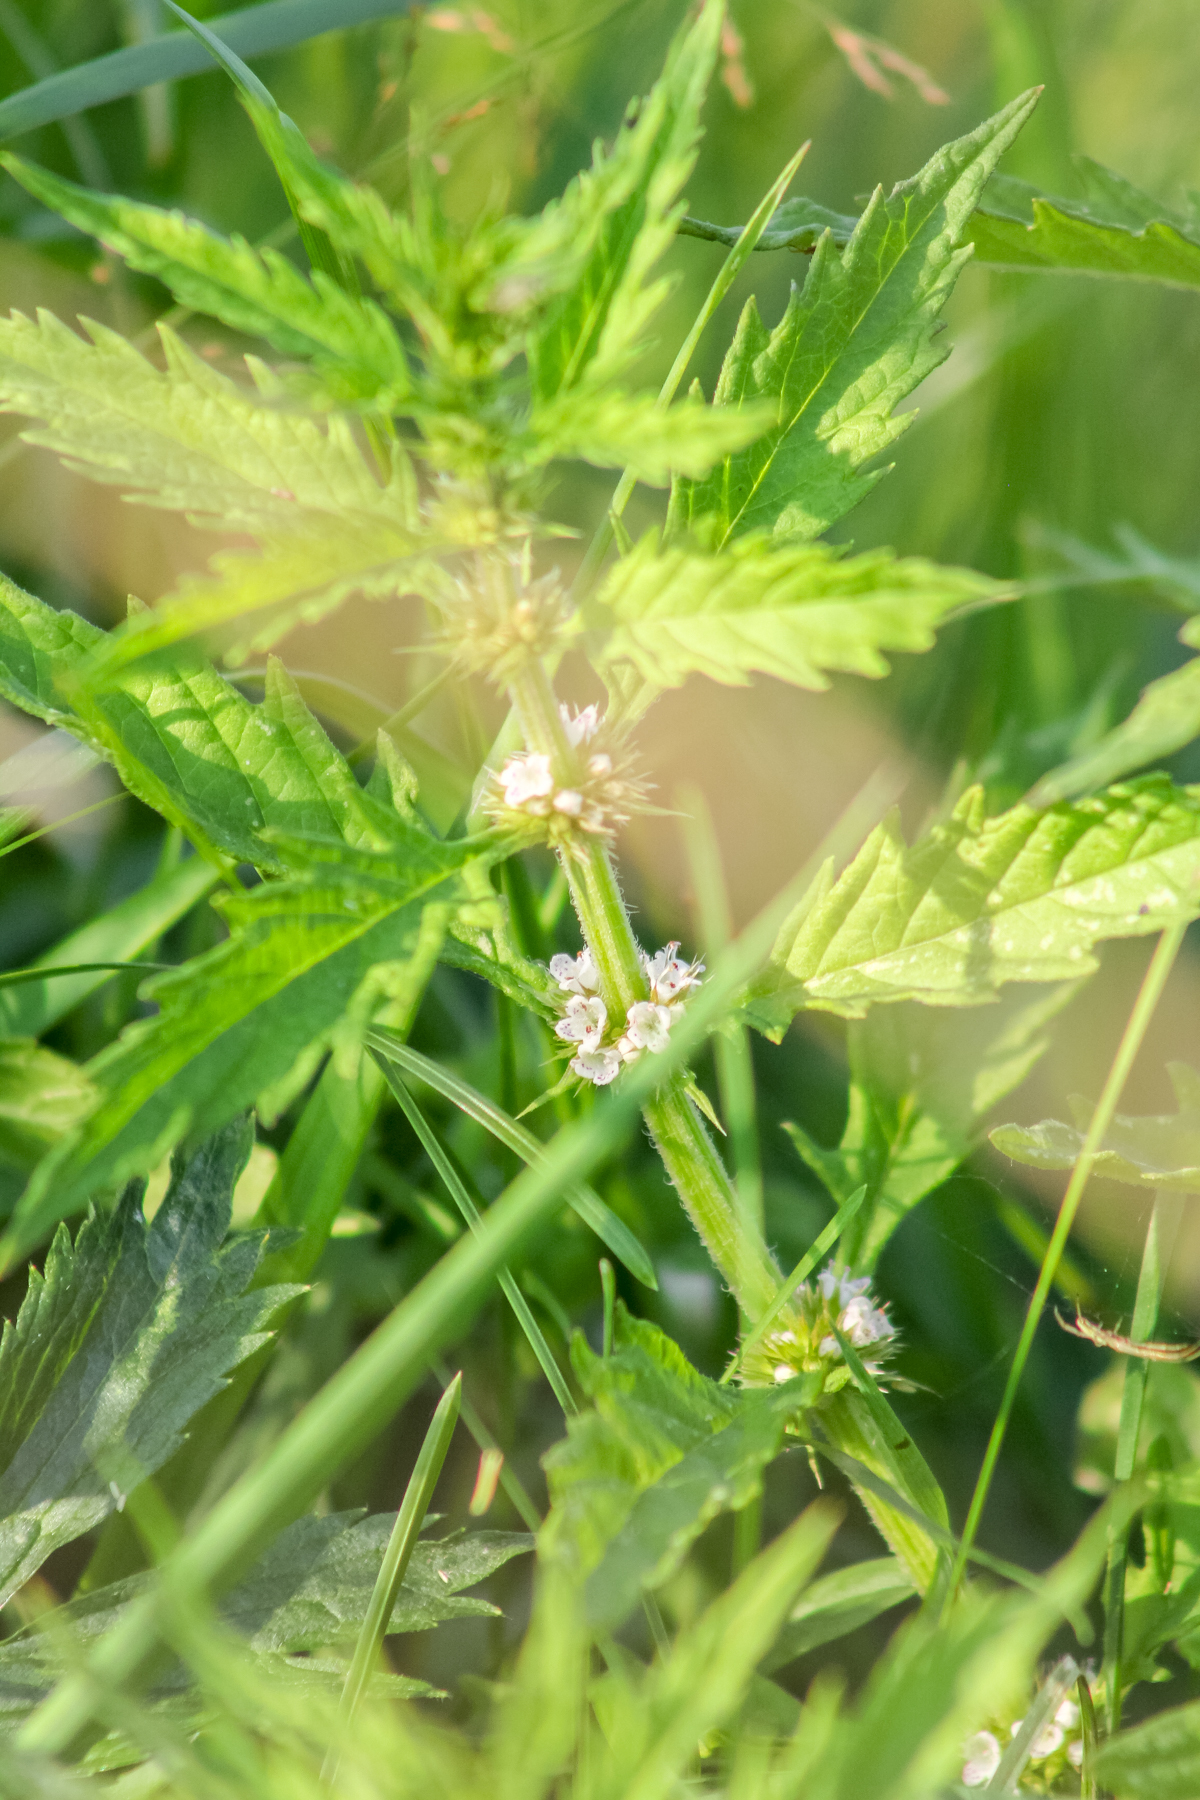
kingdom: Plantae
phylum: Tracheophyta
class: Magnoliopsida
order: Lamiales
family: Lamiaceae
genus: Lycopus
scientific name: Lycopus europaeus
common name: European bugleweed
